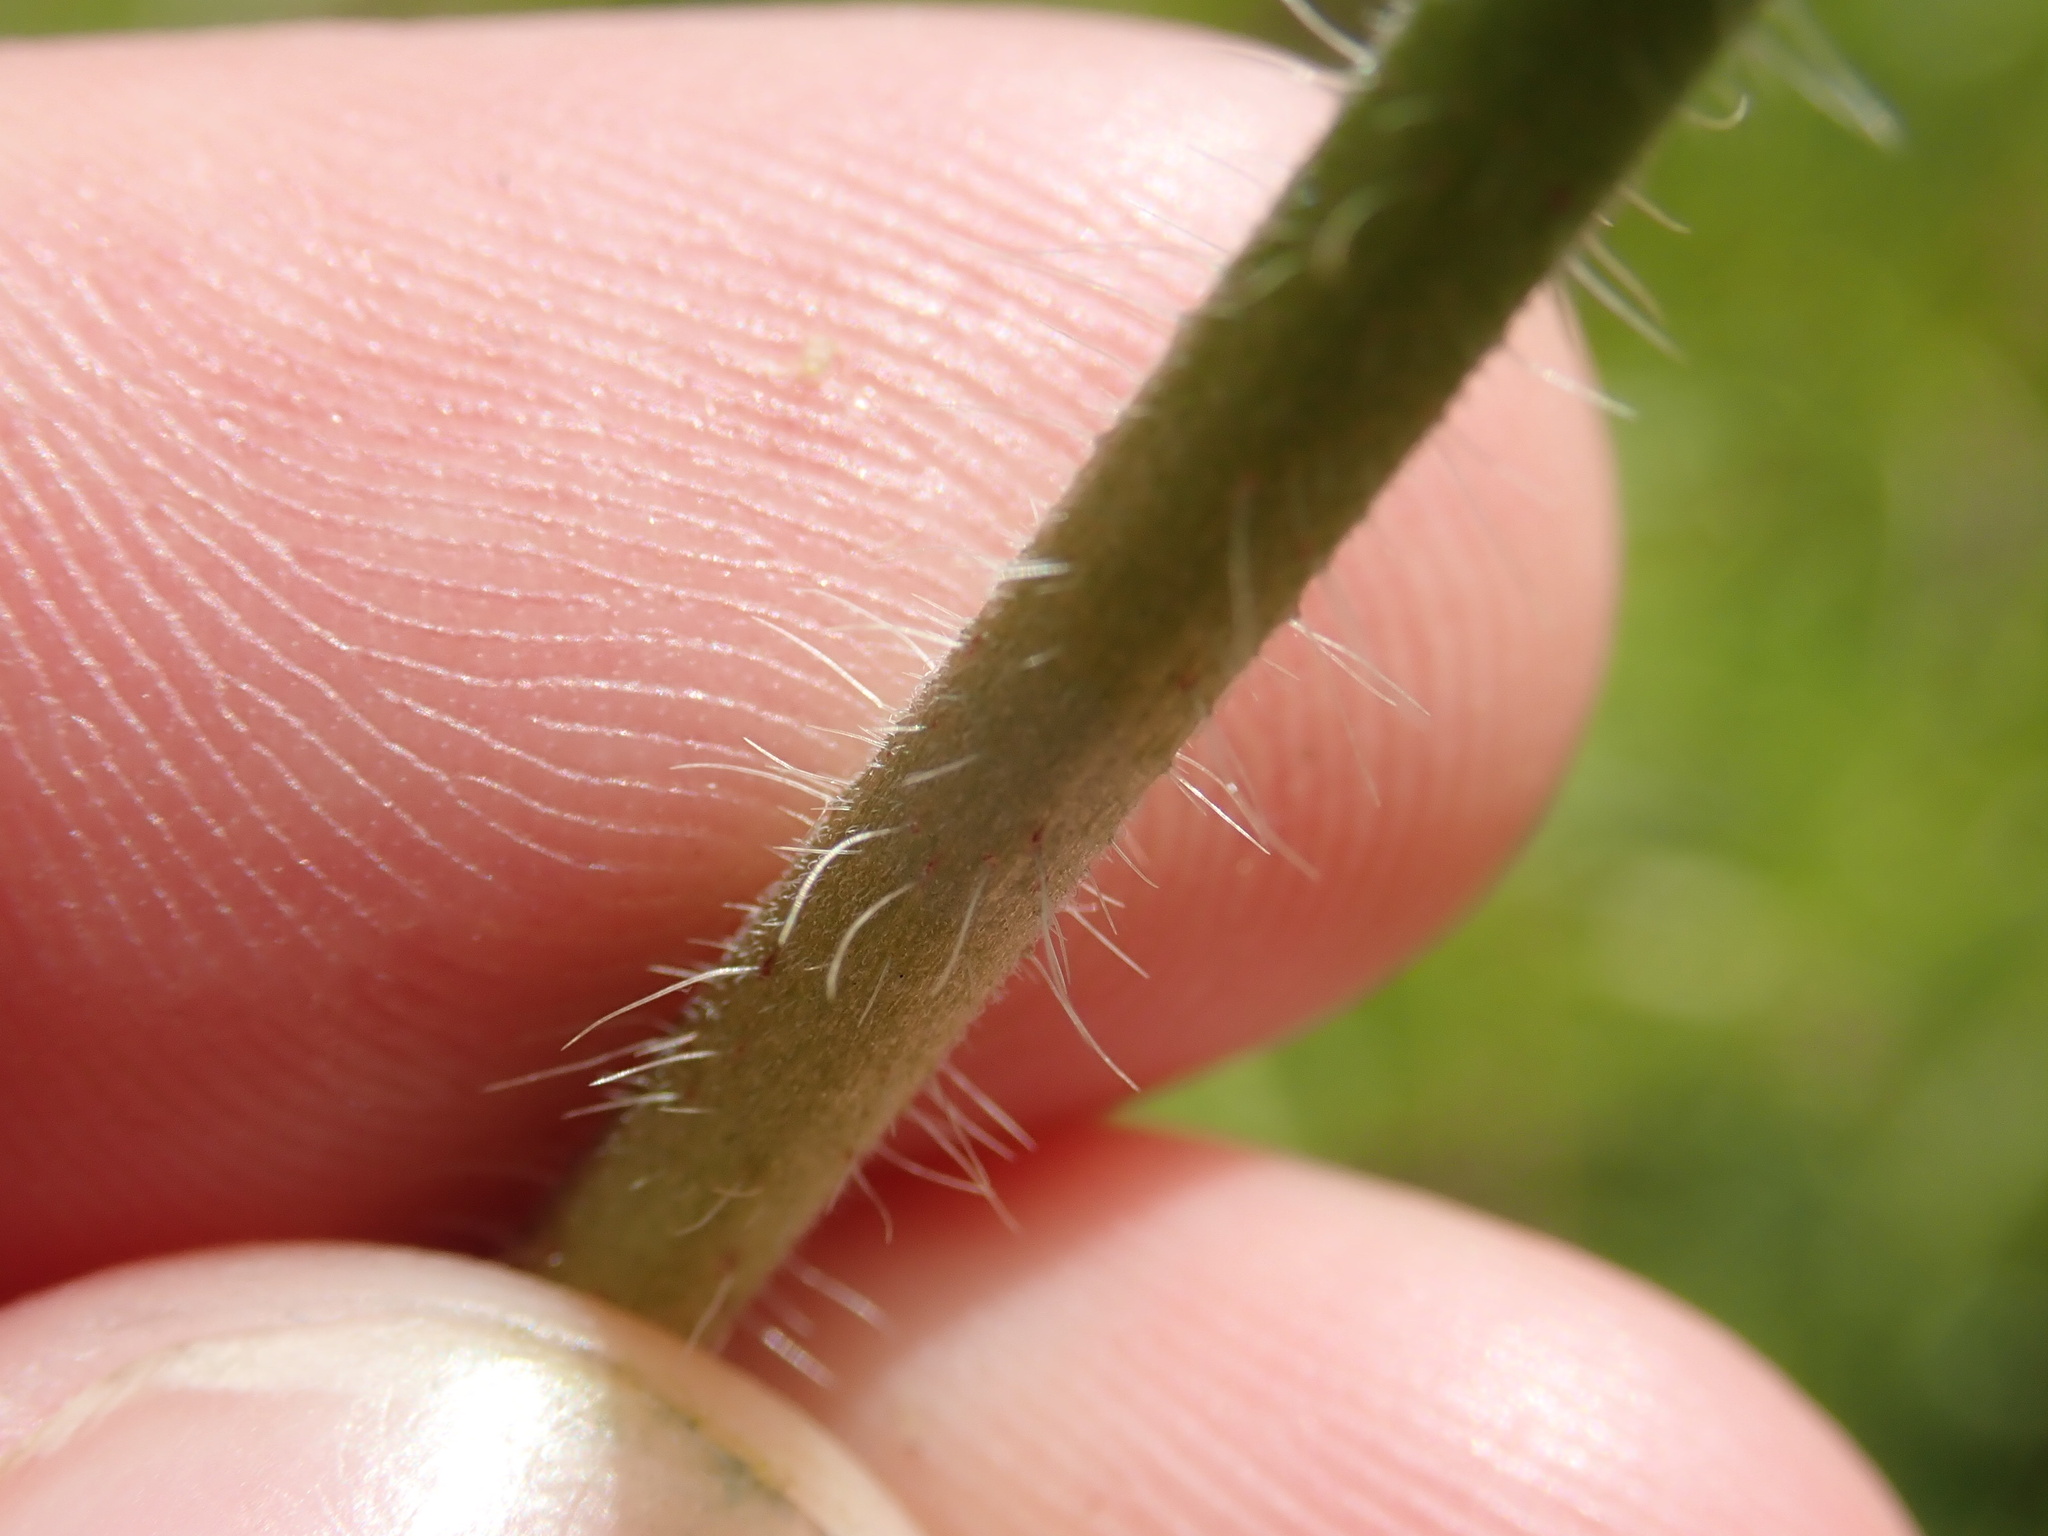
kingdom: Plantae
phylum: Tracheophyta
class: Magnoliopsida
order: Malvales
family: Malvaceae
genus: Malva
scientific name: Malva moschata
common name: Musk mallow
